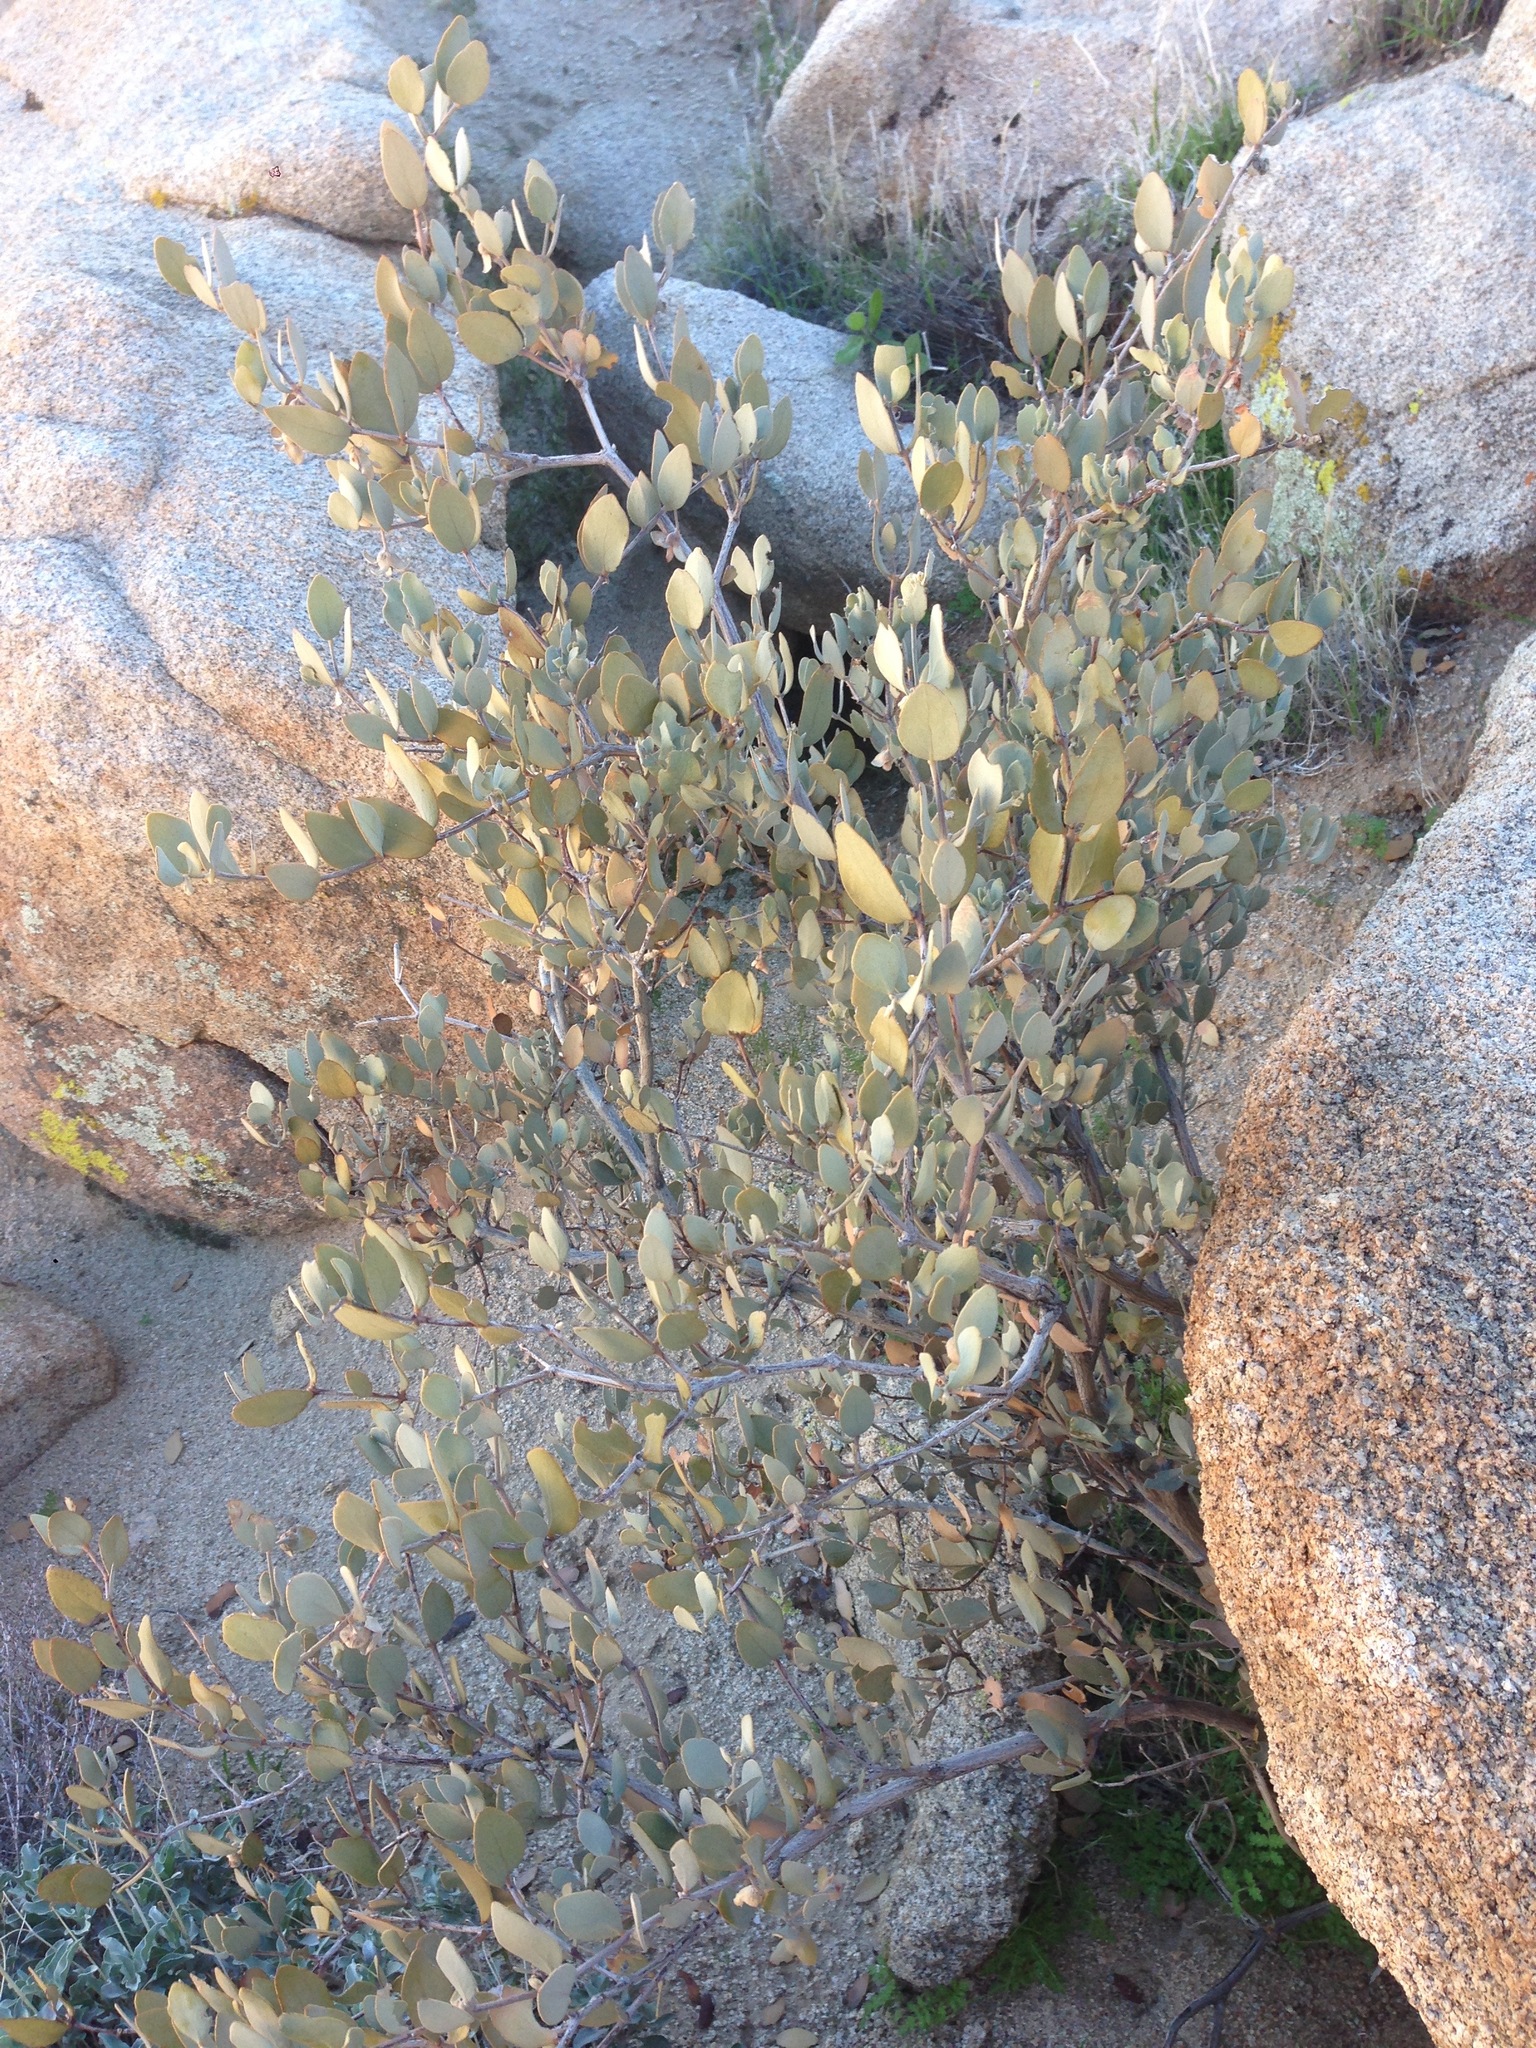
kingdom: Plantae
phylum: Tracheophyta
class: Magnoliopsida
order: Caryophyllales
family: Simmondsiaceae
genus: Simmondsia
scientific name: Simmondsia chinensis
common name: Jojoba
